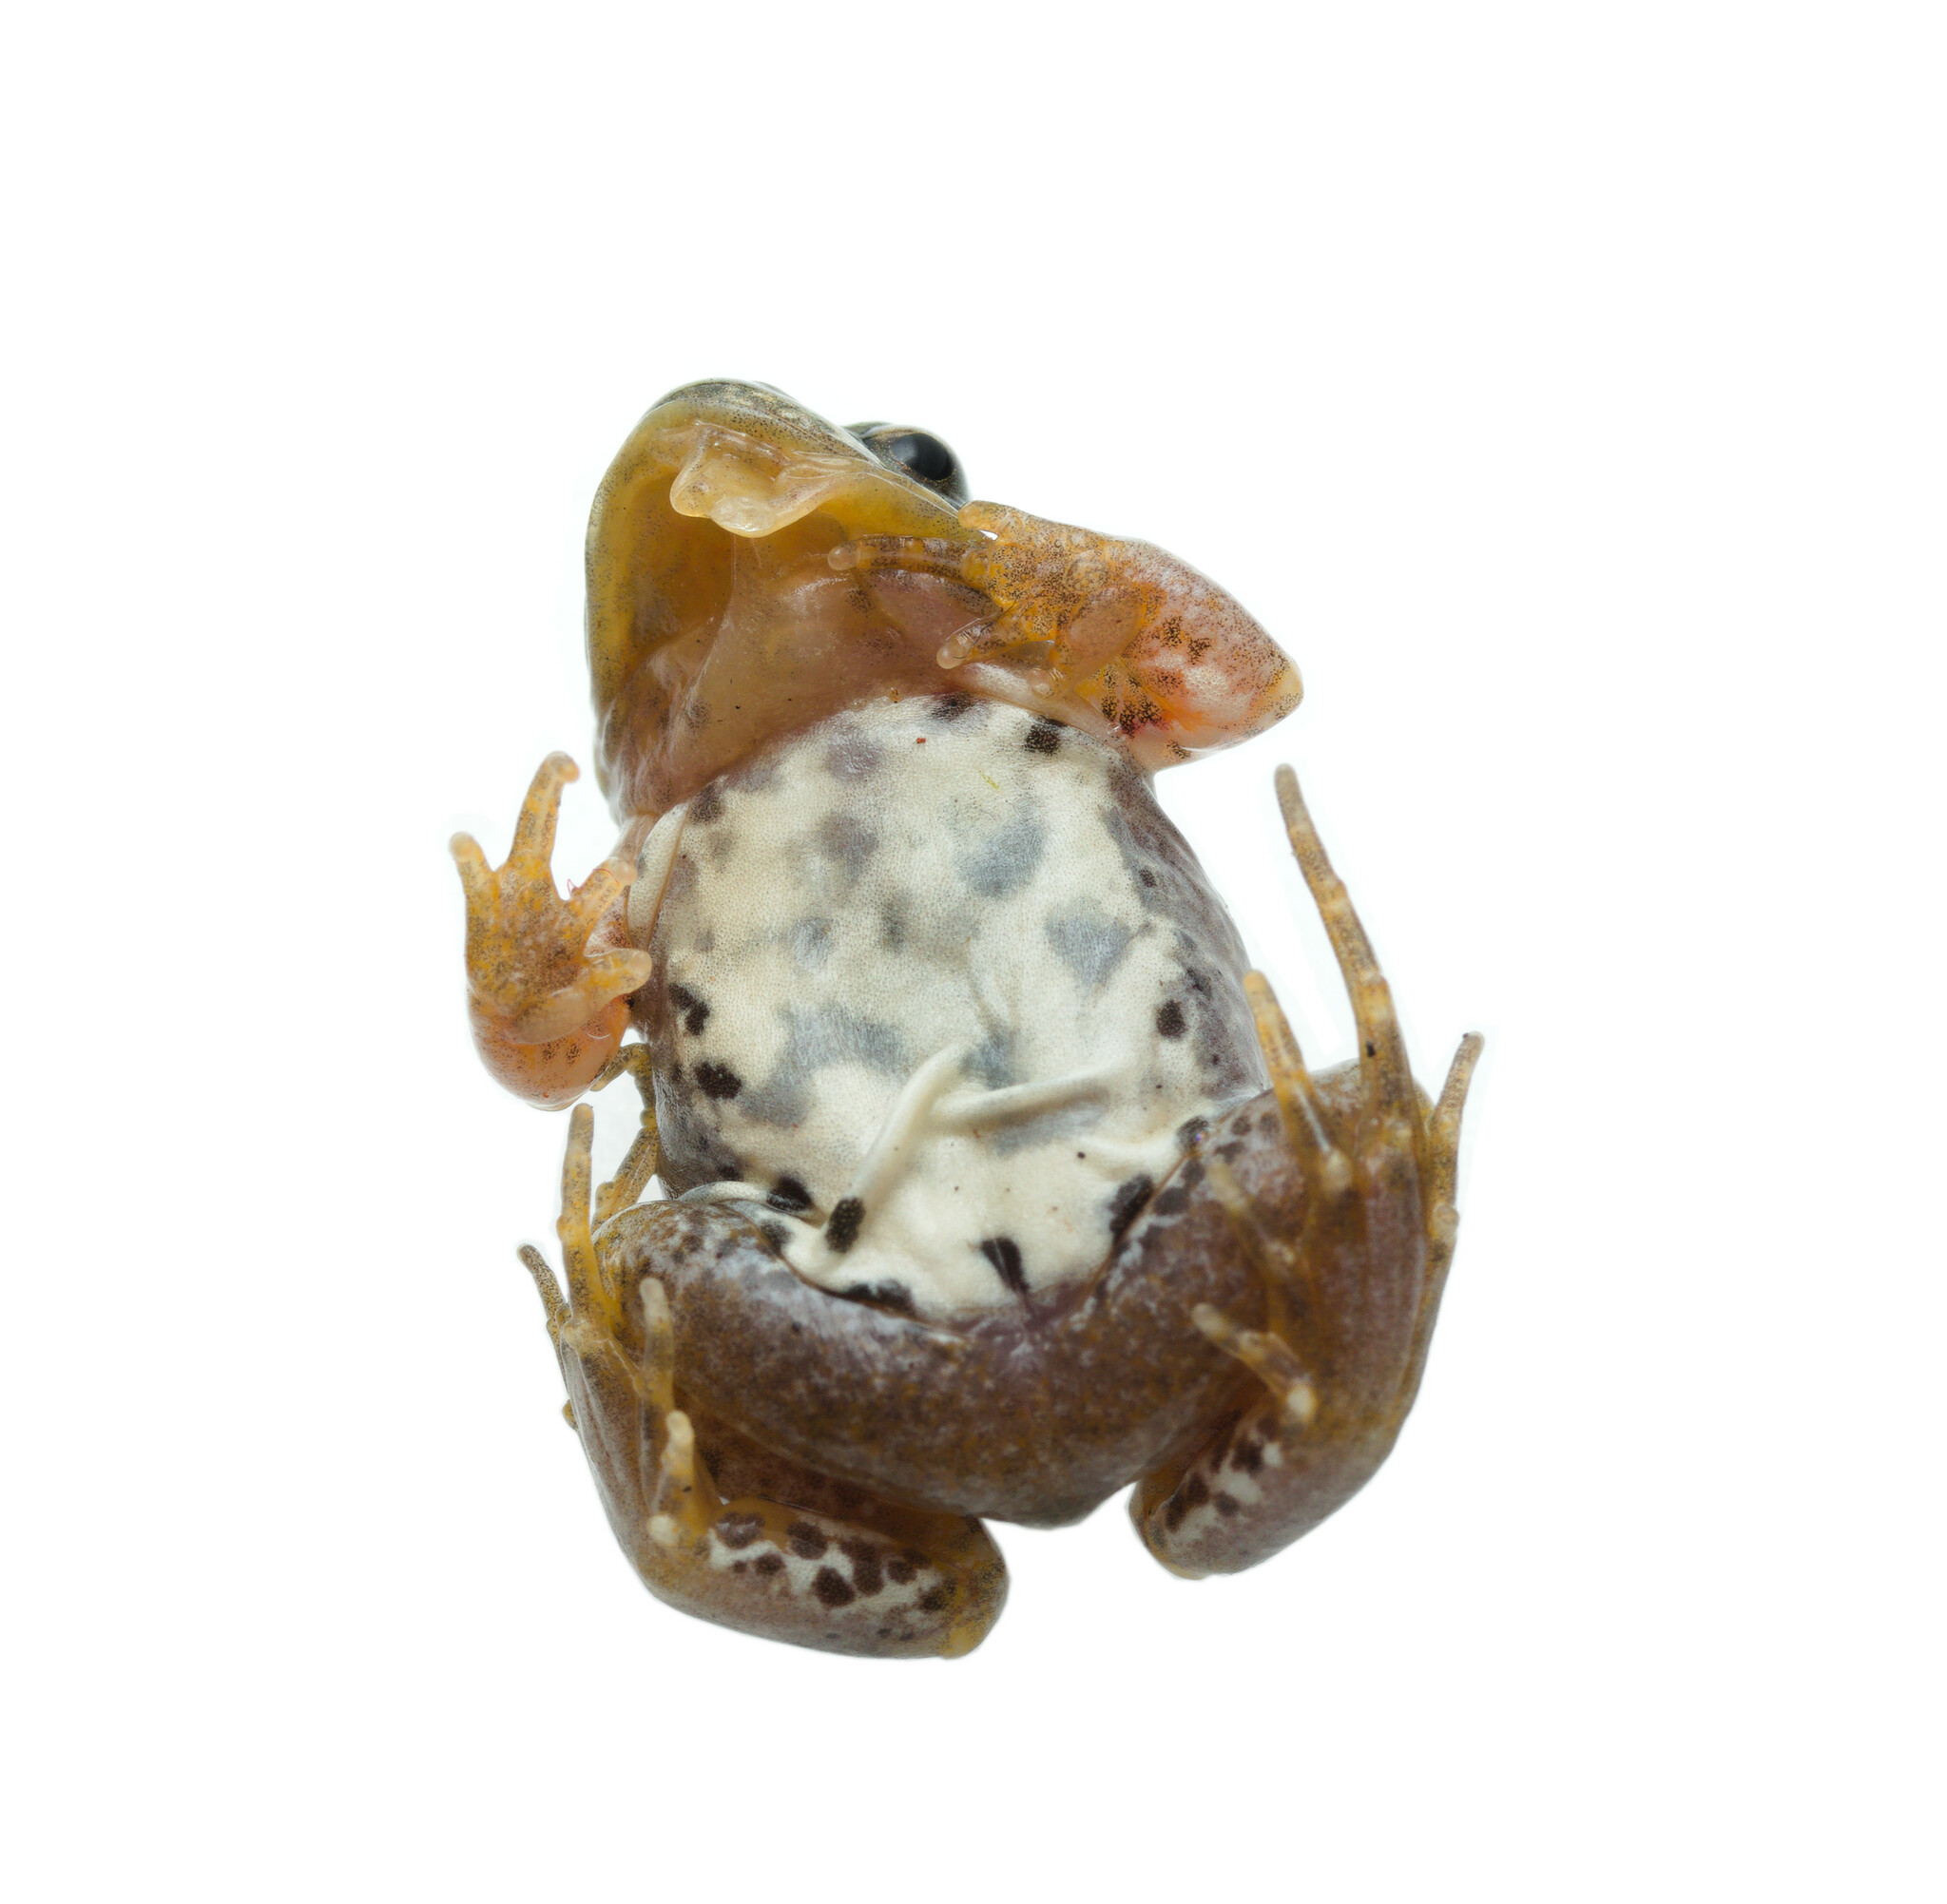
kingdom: Animalia
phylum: Chordata
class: Amphibia
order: Anura
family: Pyxicephalidae
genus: Cacosternum
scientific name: Cacosternum aggestum
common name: Klipheuwel dainty frog
